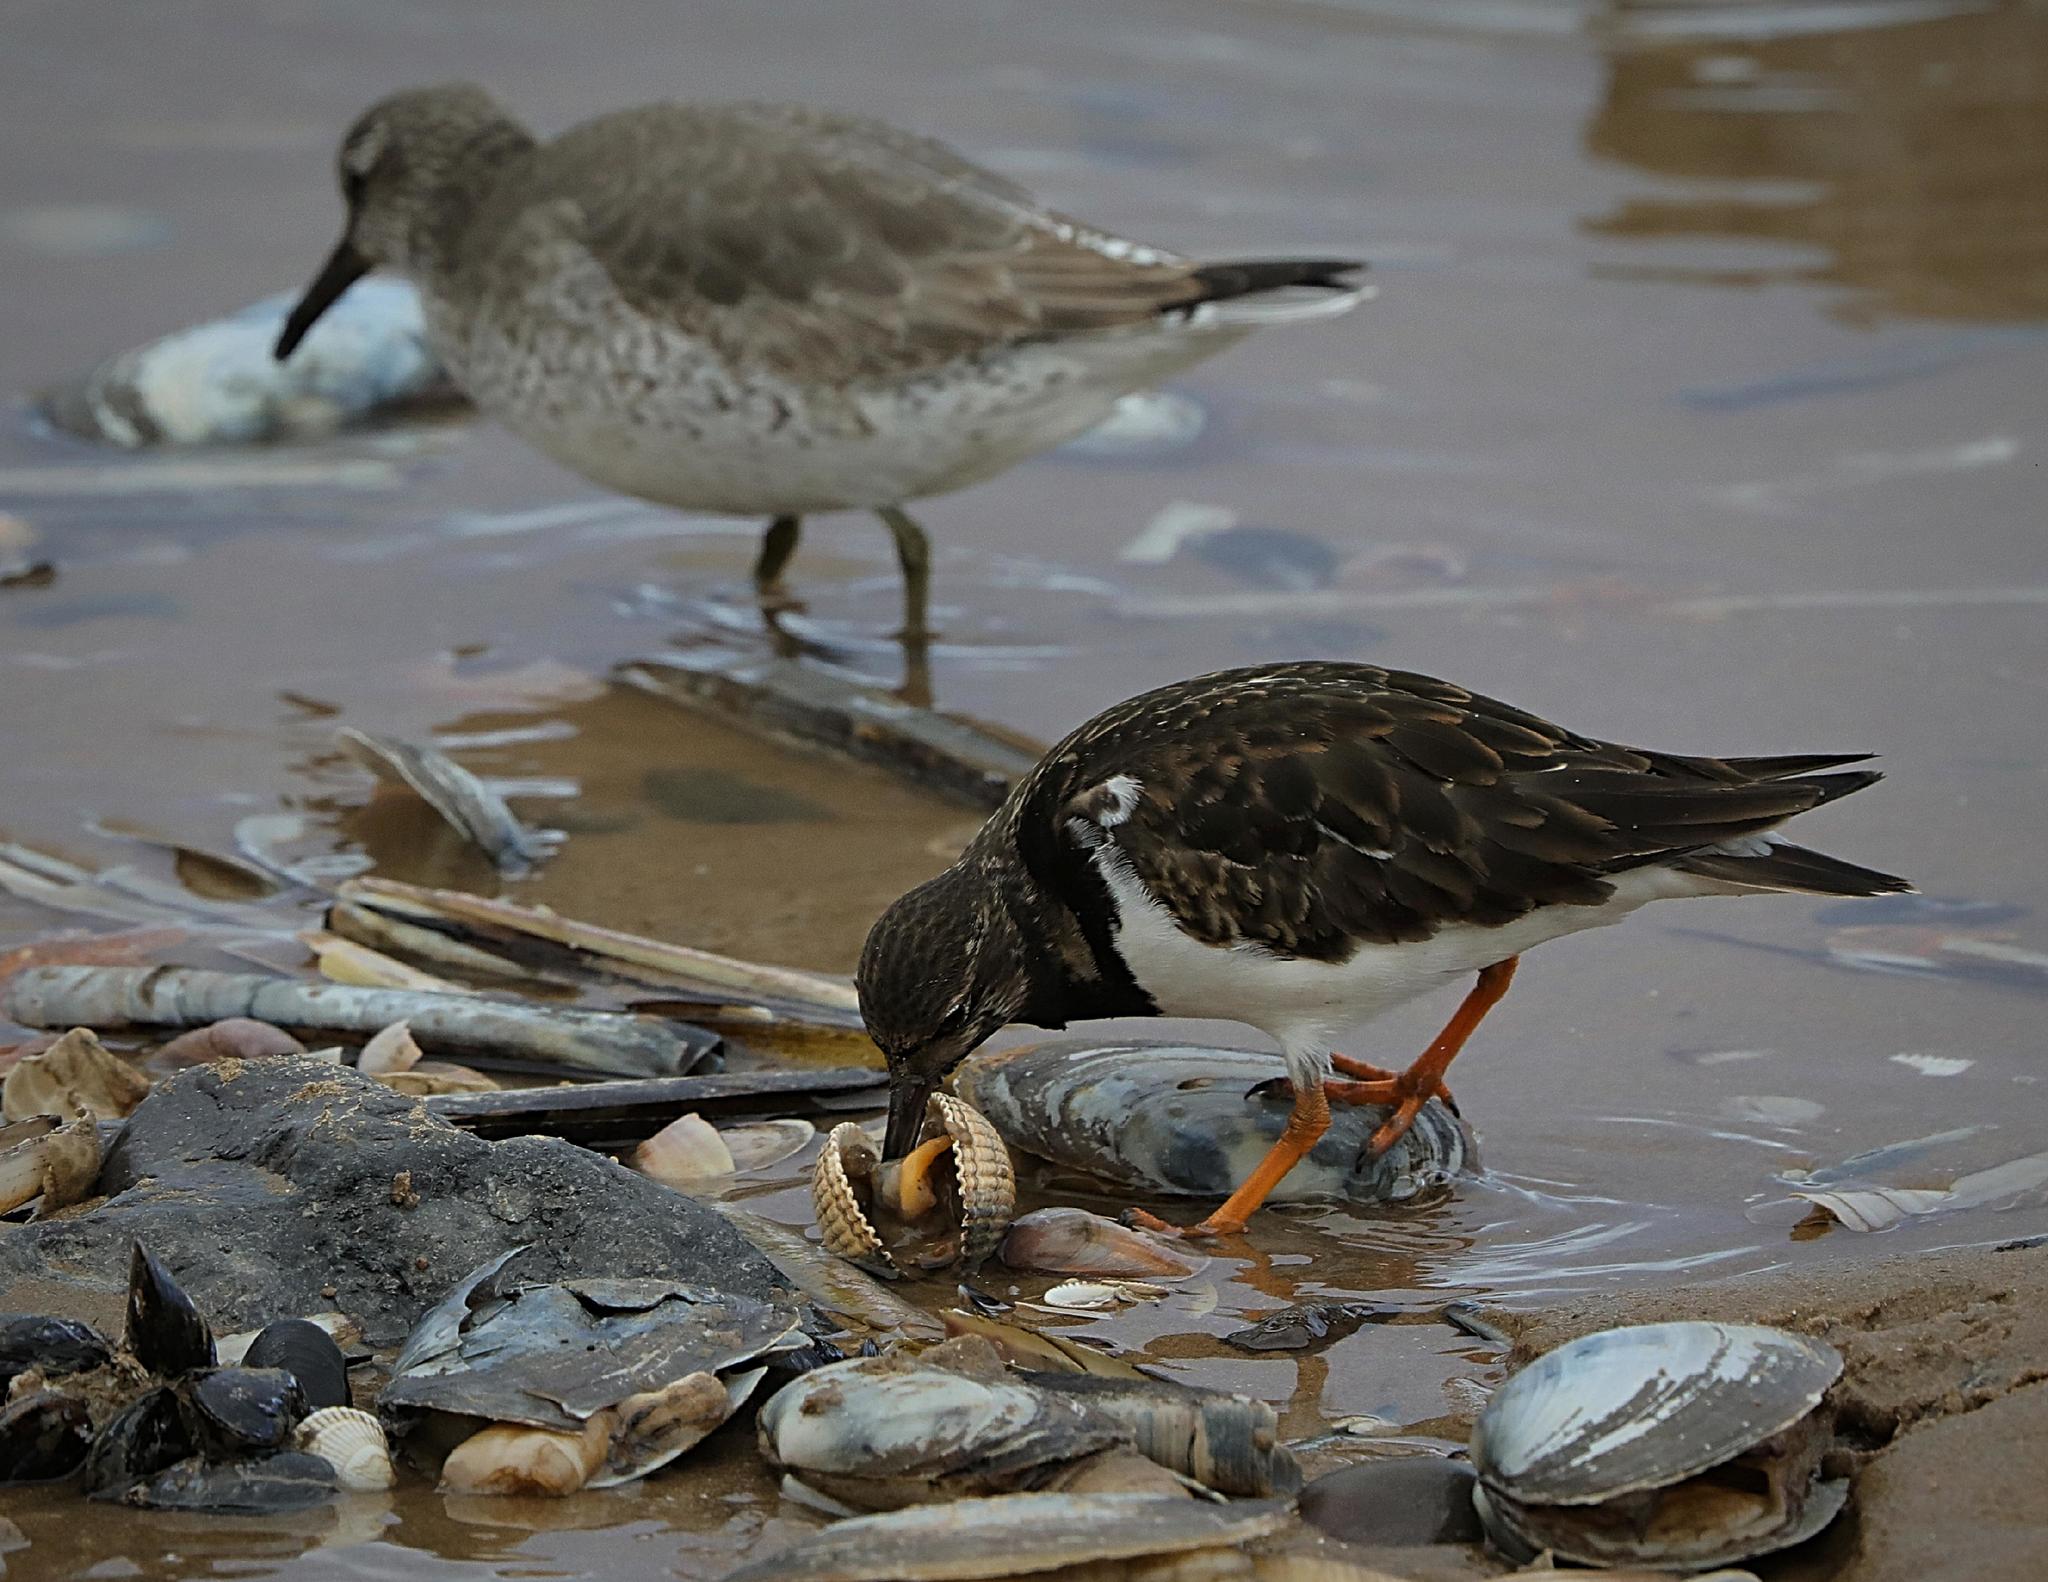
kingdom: Animalia
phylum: Chordata
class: Aves
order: Charadriiformes
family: Scolopacidae
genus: Arenaria
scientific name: Arenaria interpres
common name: Ruddy turnstone
